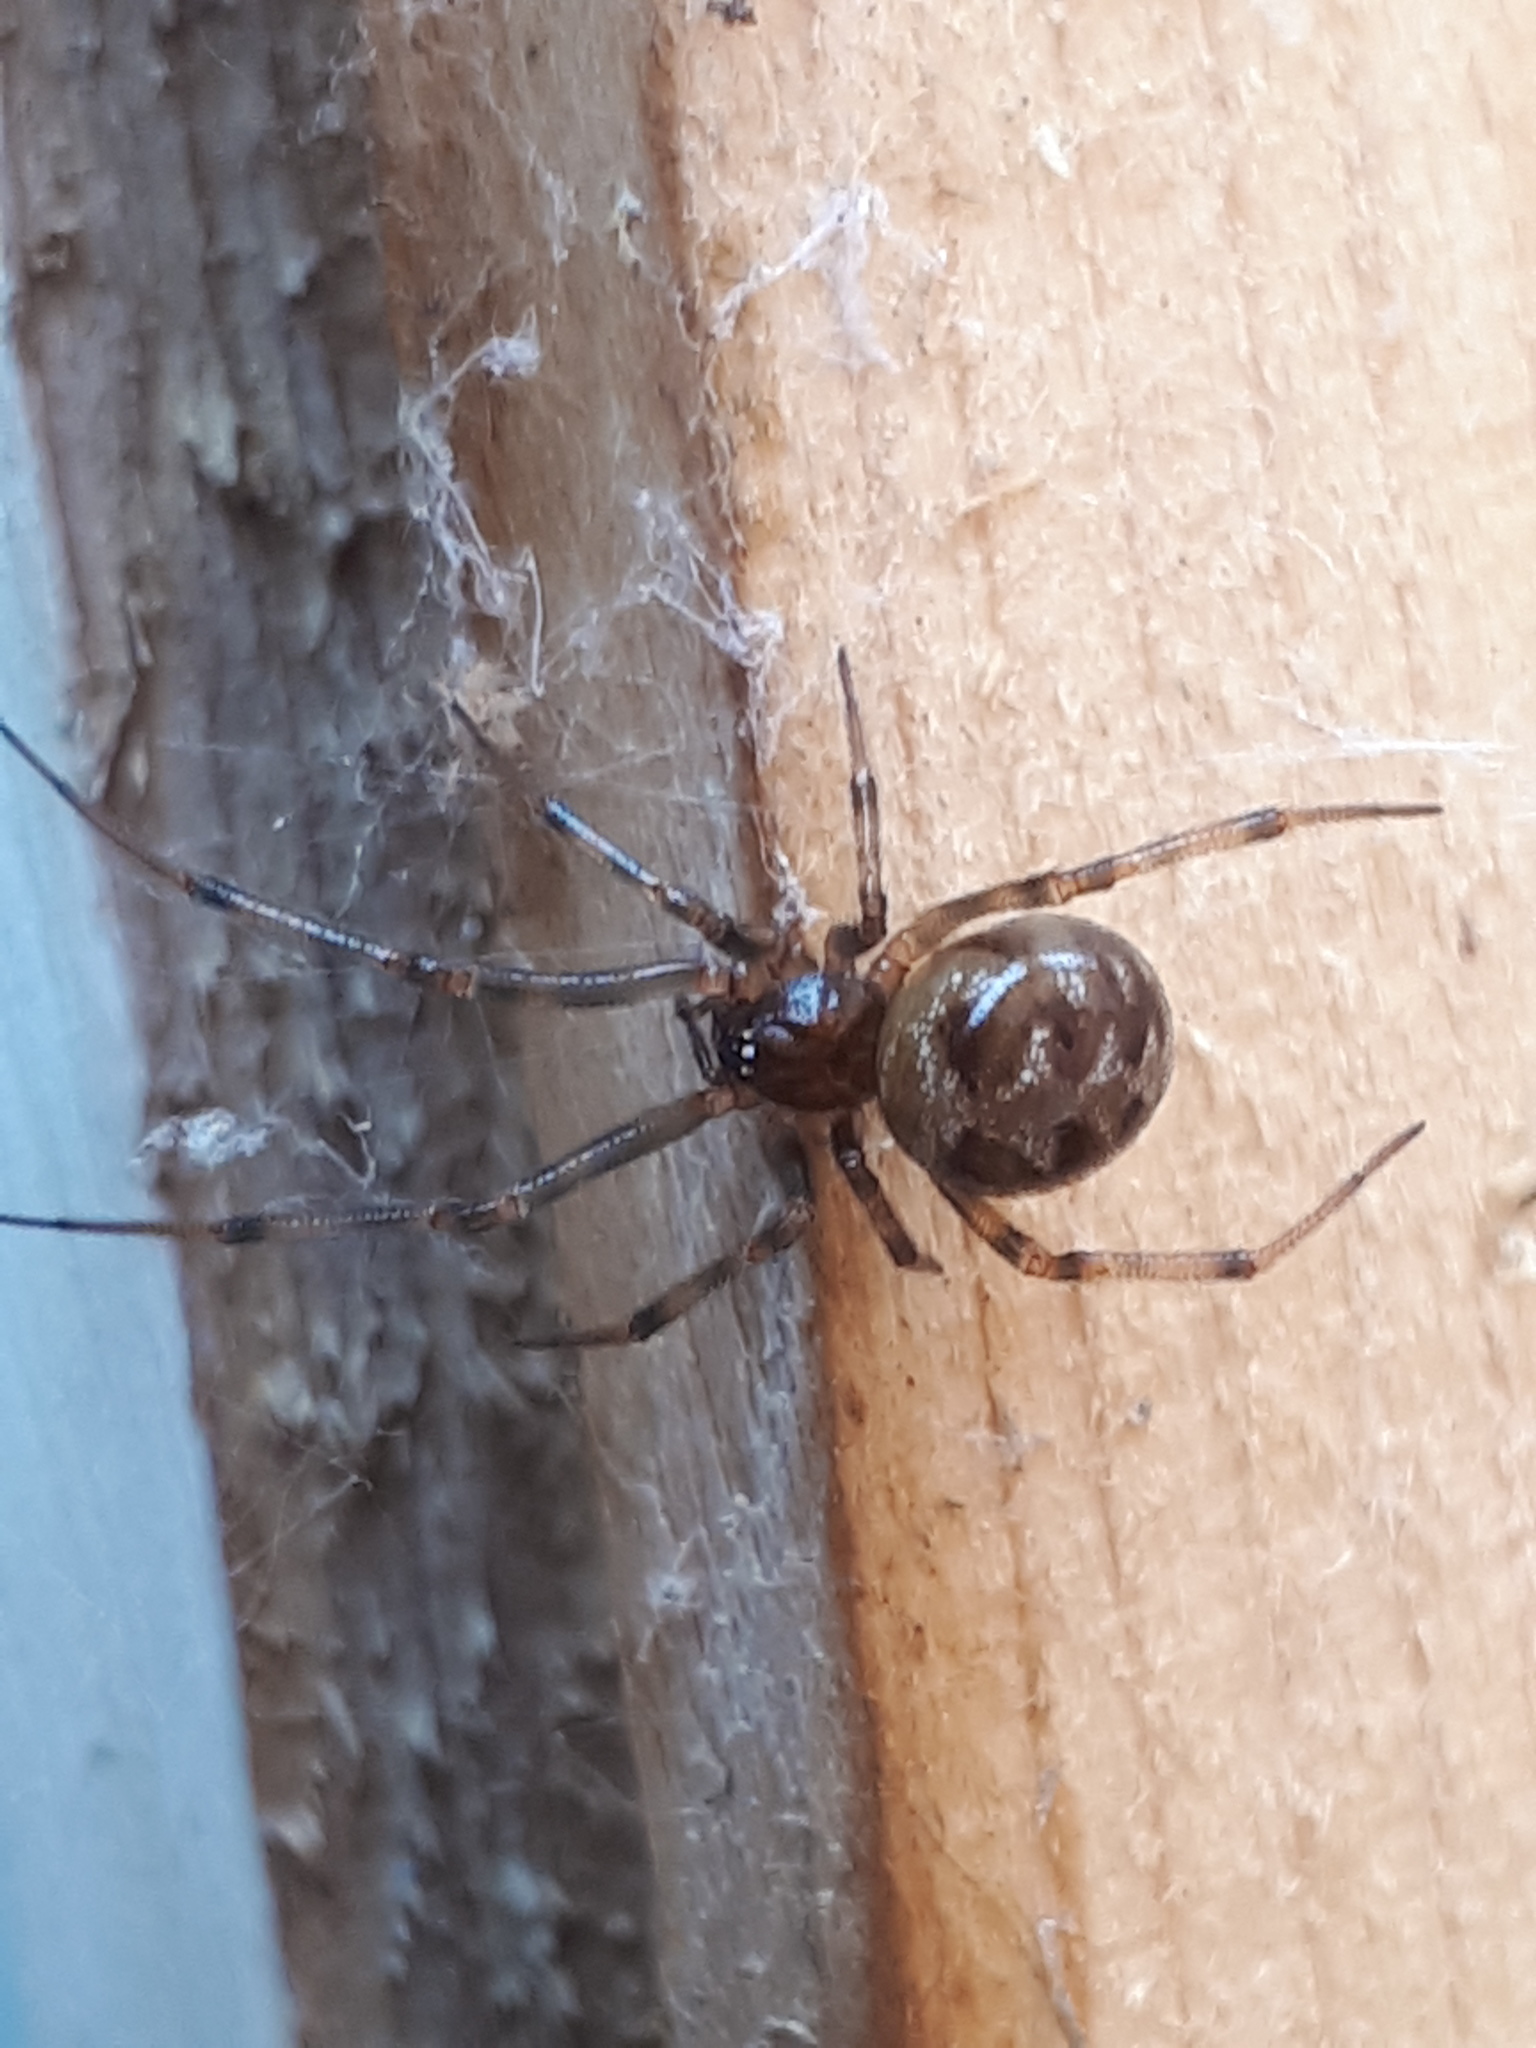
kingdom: Animalia
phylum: Arthropoda
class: Arachnida
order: Araneae
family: Theridiidae
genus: Steatoda
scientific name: Steatoda triangulosa
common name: Triangulate bud spider
